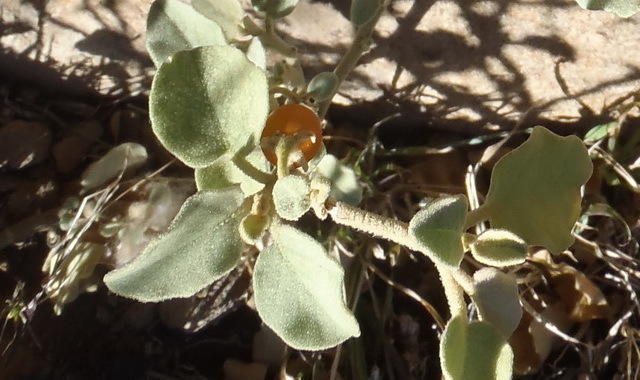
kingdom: Plantae
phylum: Tracheophyta
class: Magnoliopsida
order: Solanales
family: Solanaceae
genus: Solanum
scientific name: Solanum tomentosum
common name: Wild aubergine
